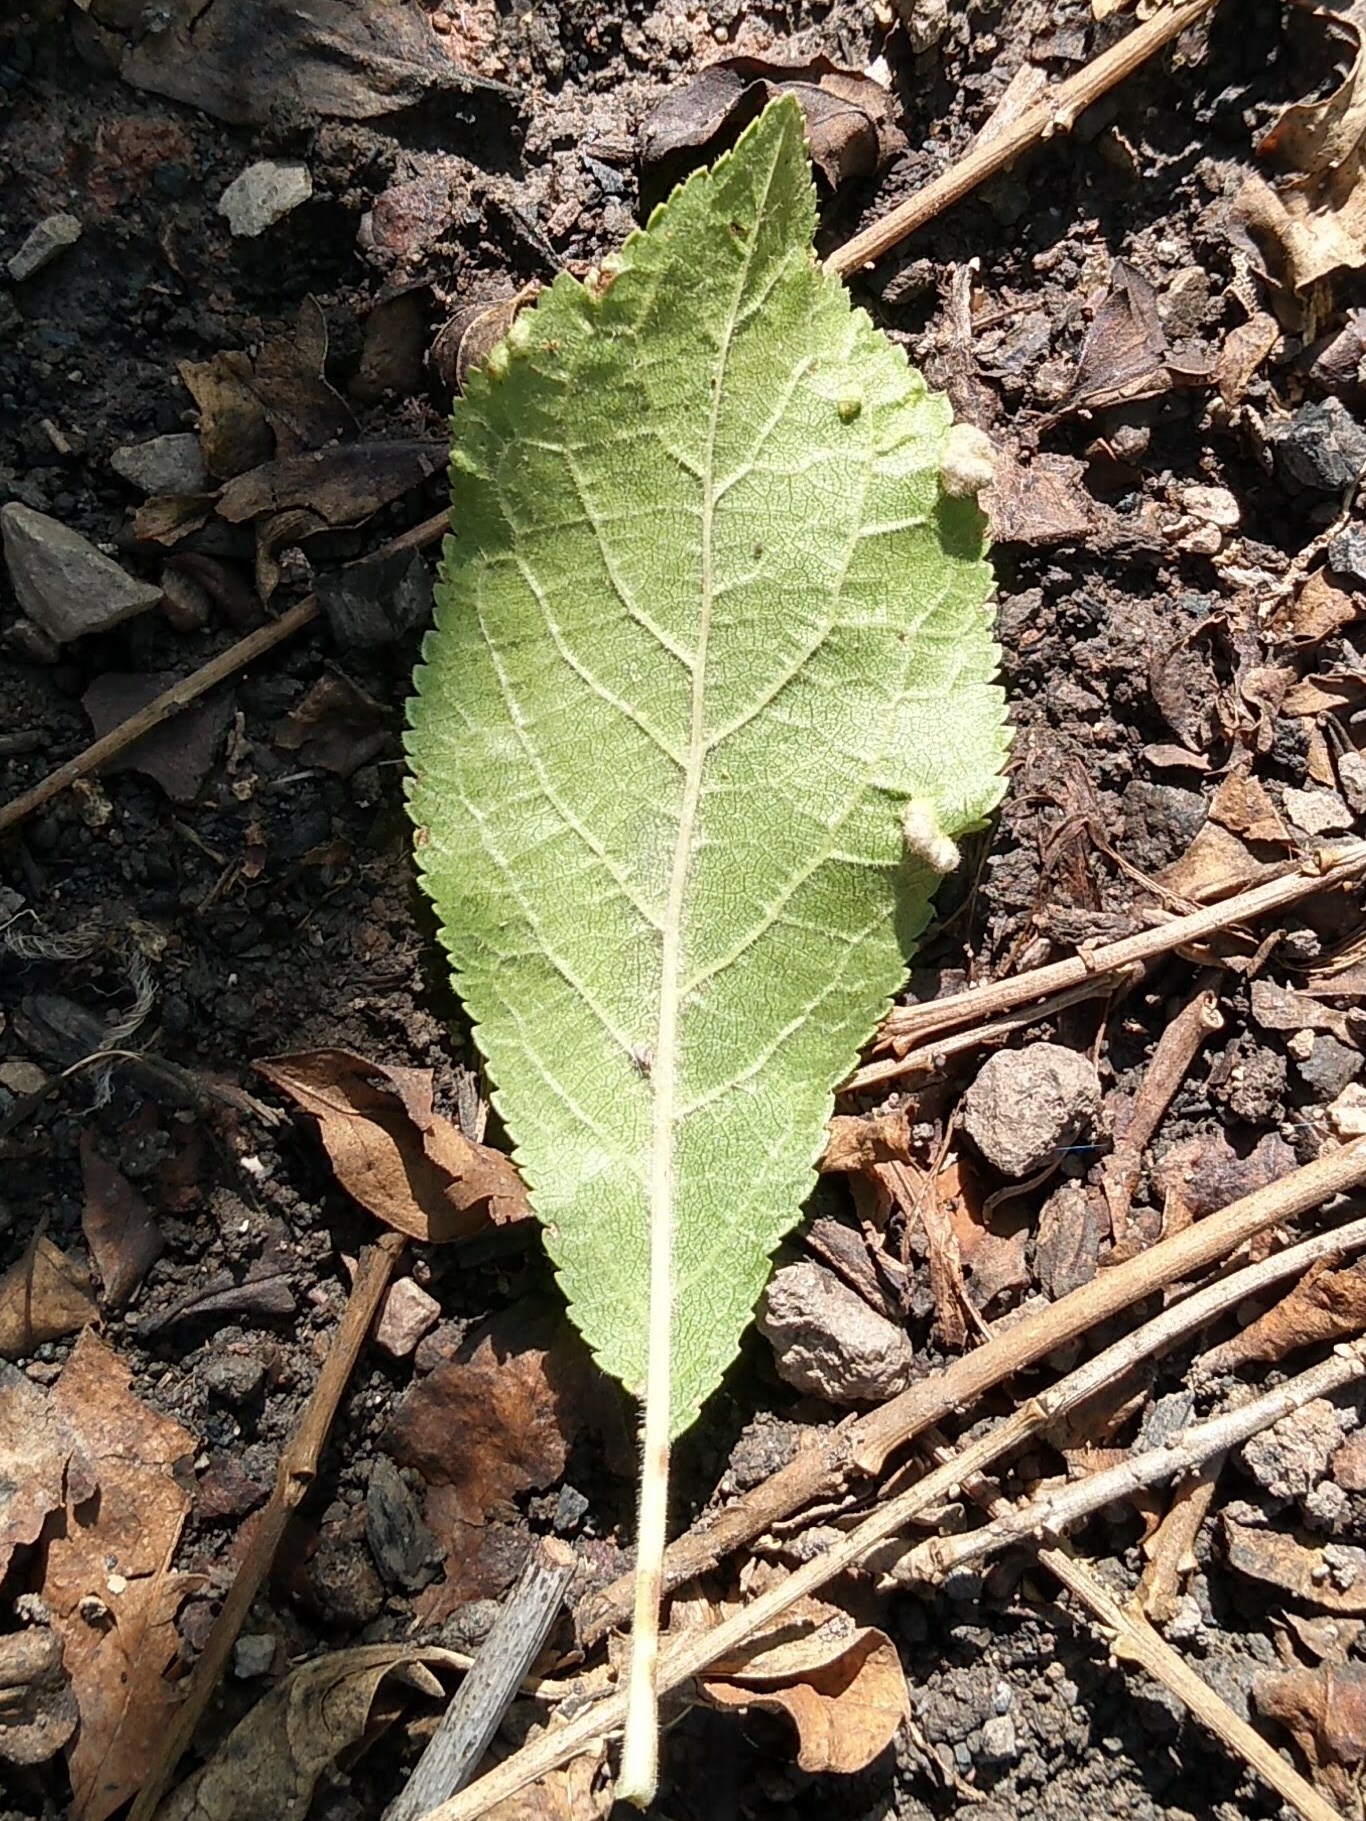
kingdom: Animalia
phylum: Arthropoda
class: Arachnida
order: Trombidiformes
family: Eriophyidae
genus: Eriophyes
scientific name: Eriophyes similis
